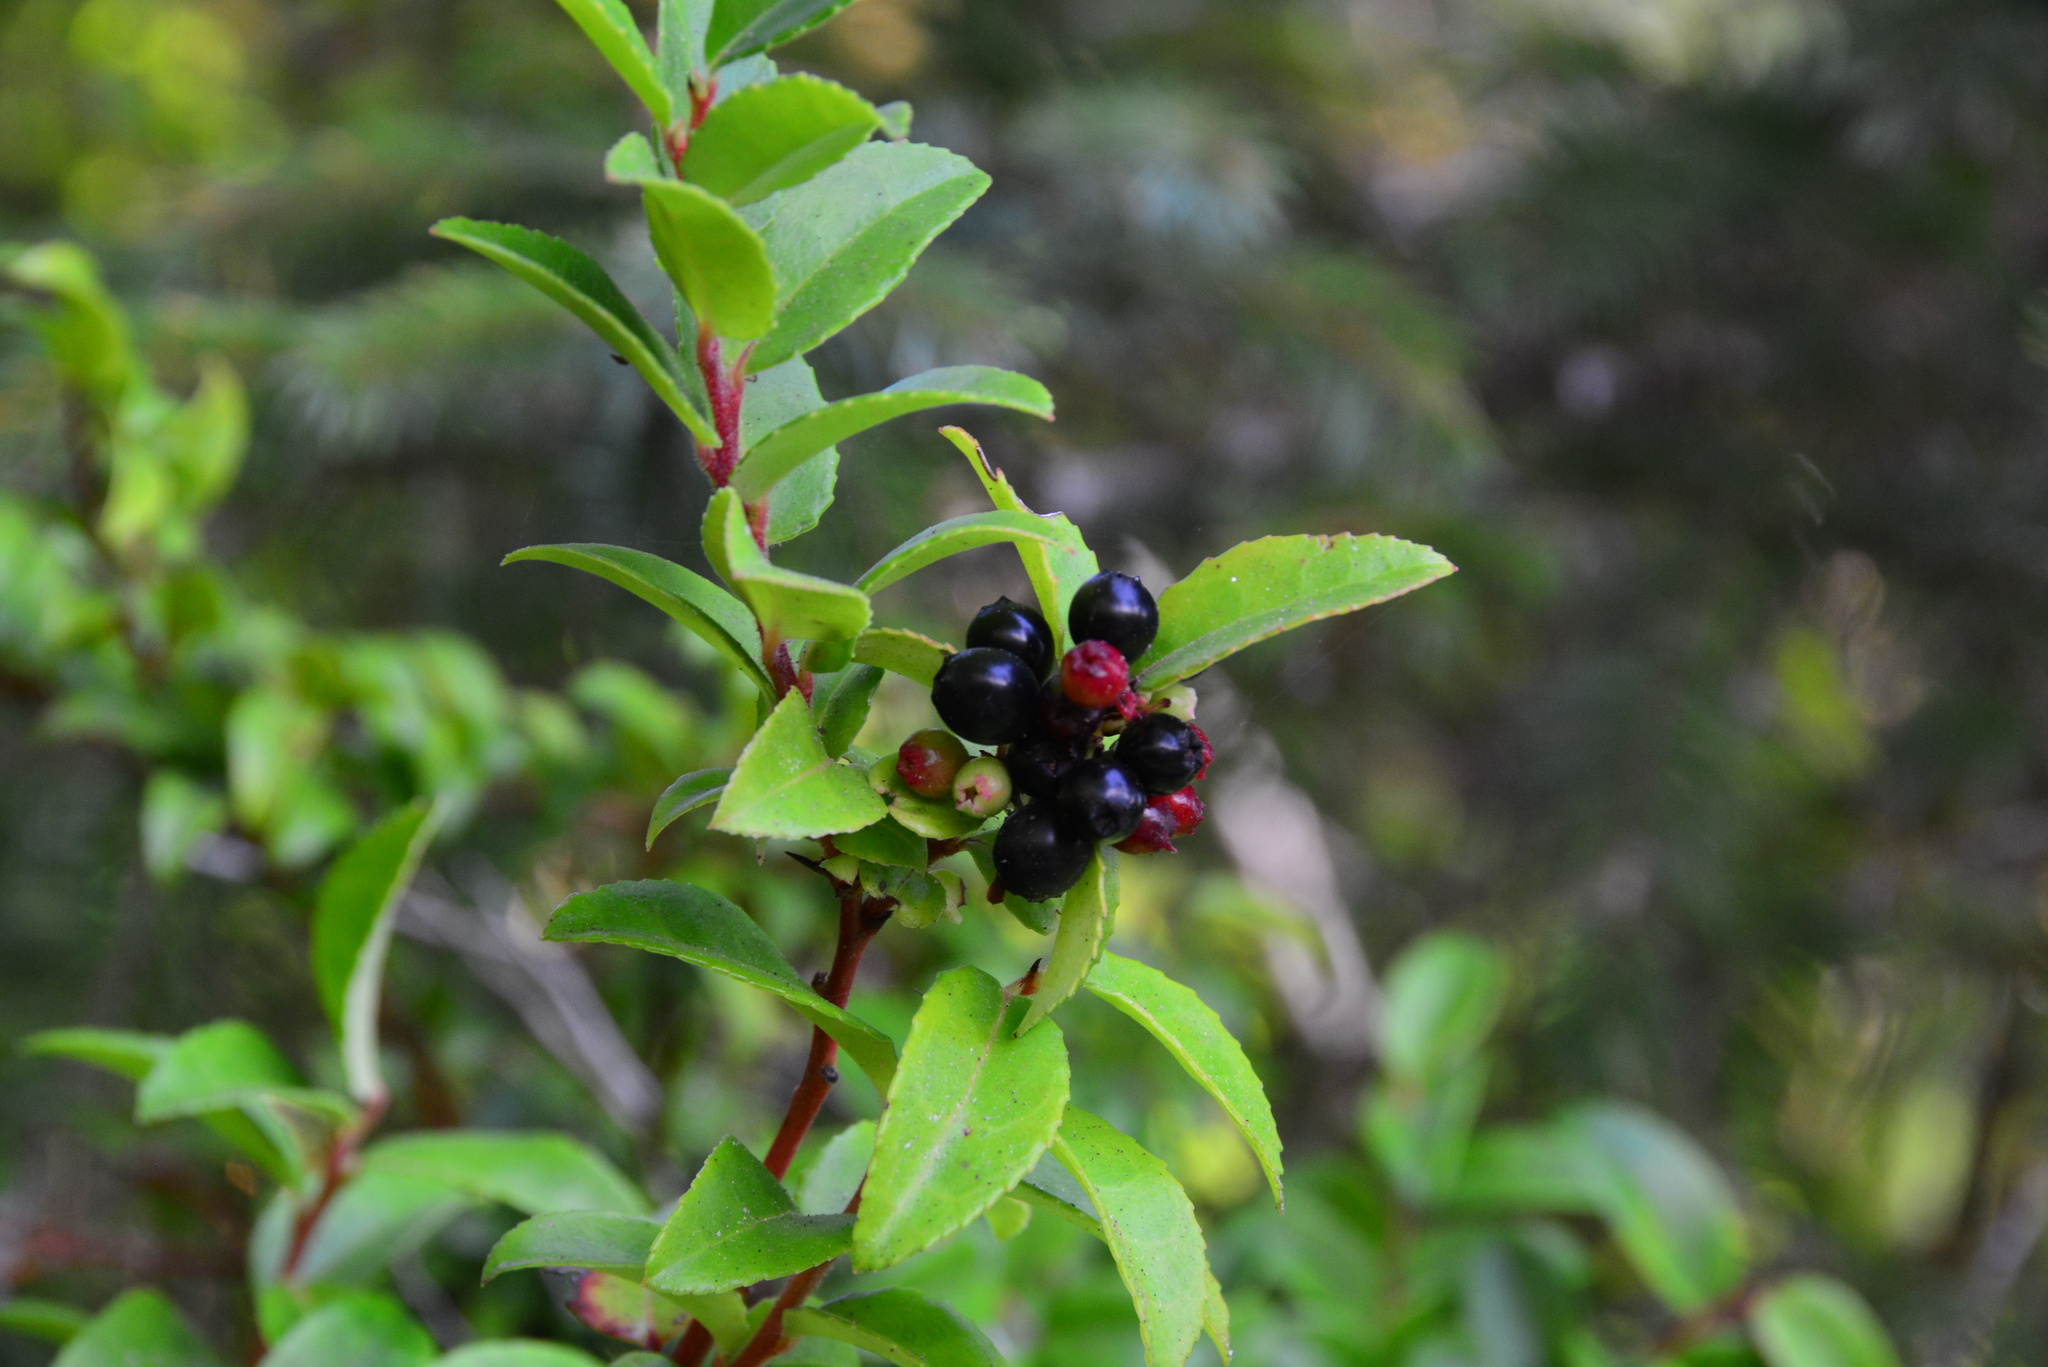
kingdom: Plantae
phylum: Tracheophyta
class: Magnoliopsida
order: Ericales
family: Ericaceae
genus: Vaccinium
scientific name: Vaccinium ovatum
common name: California-huckleberry
